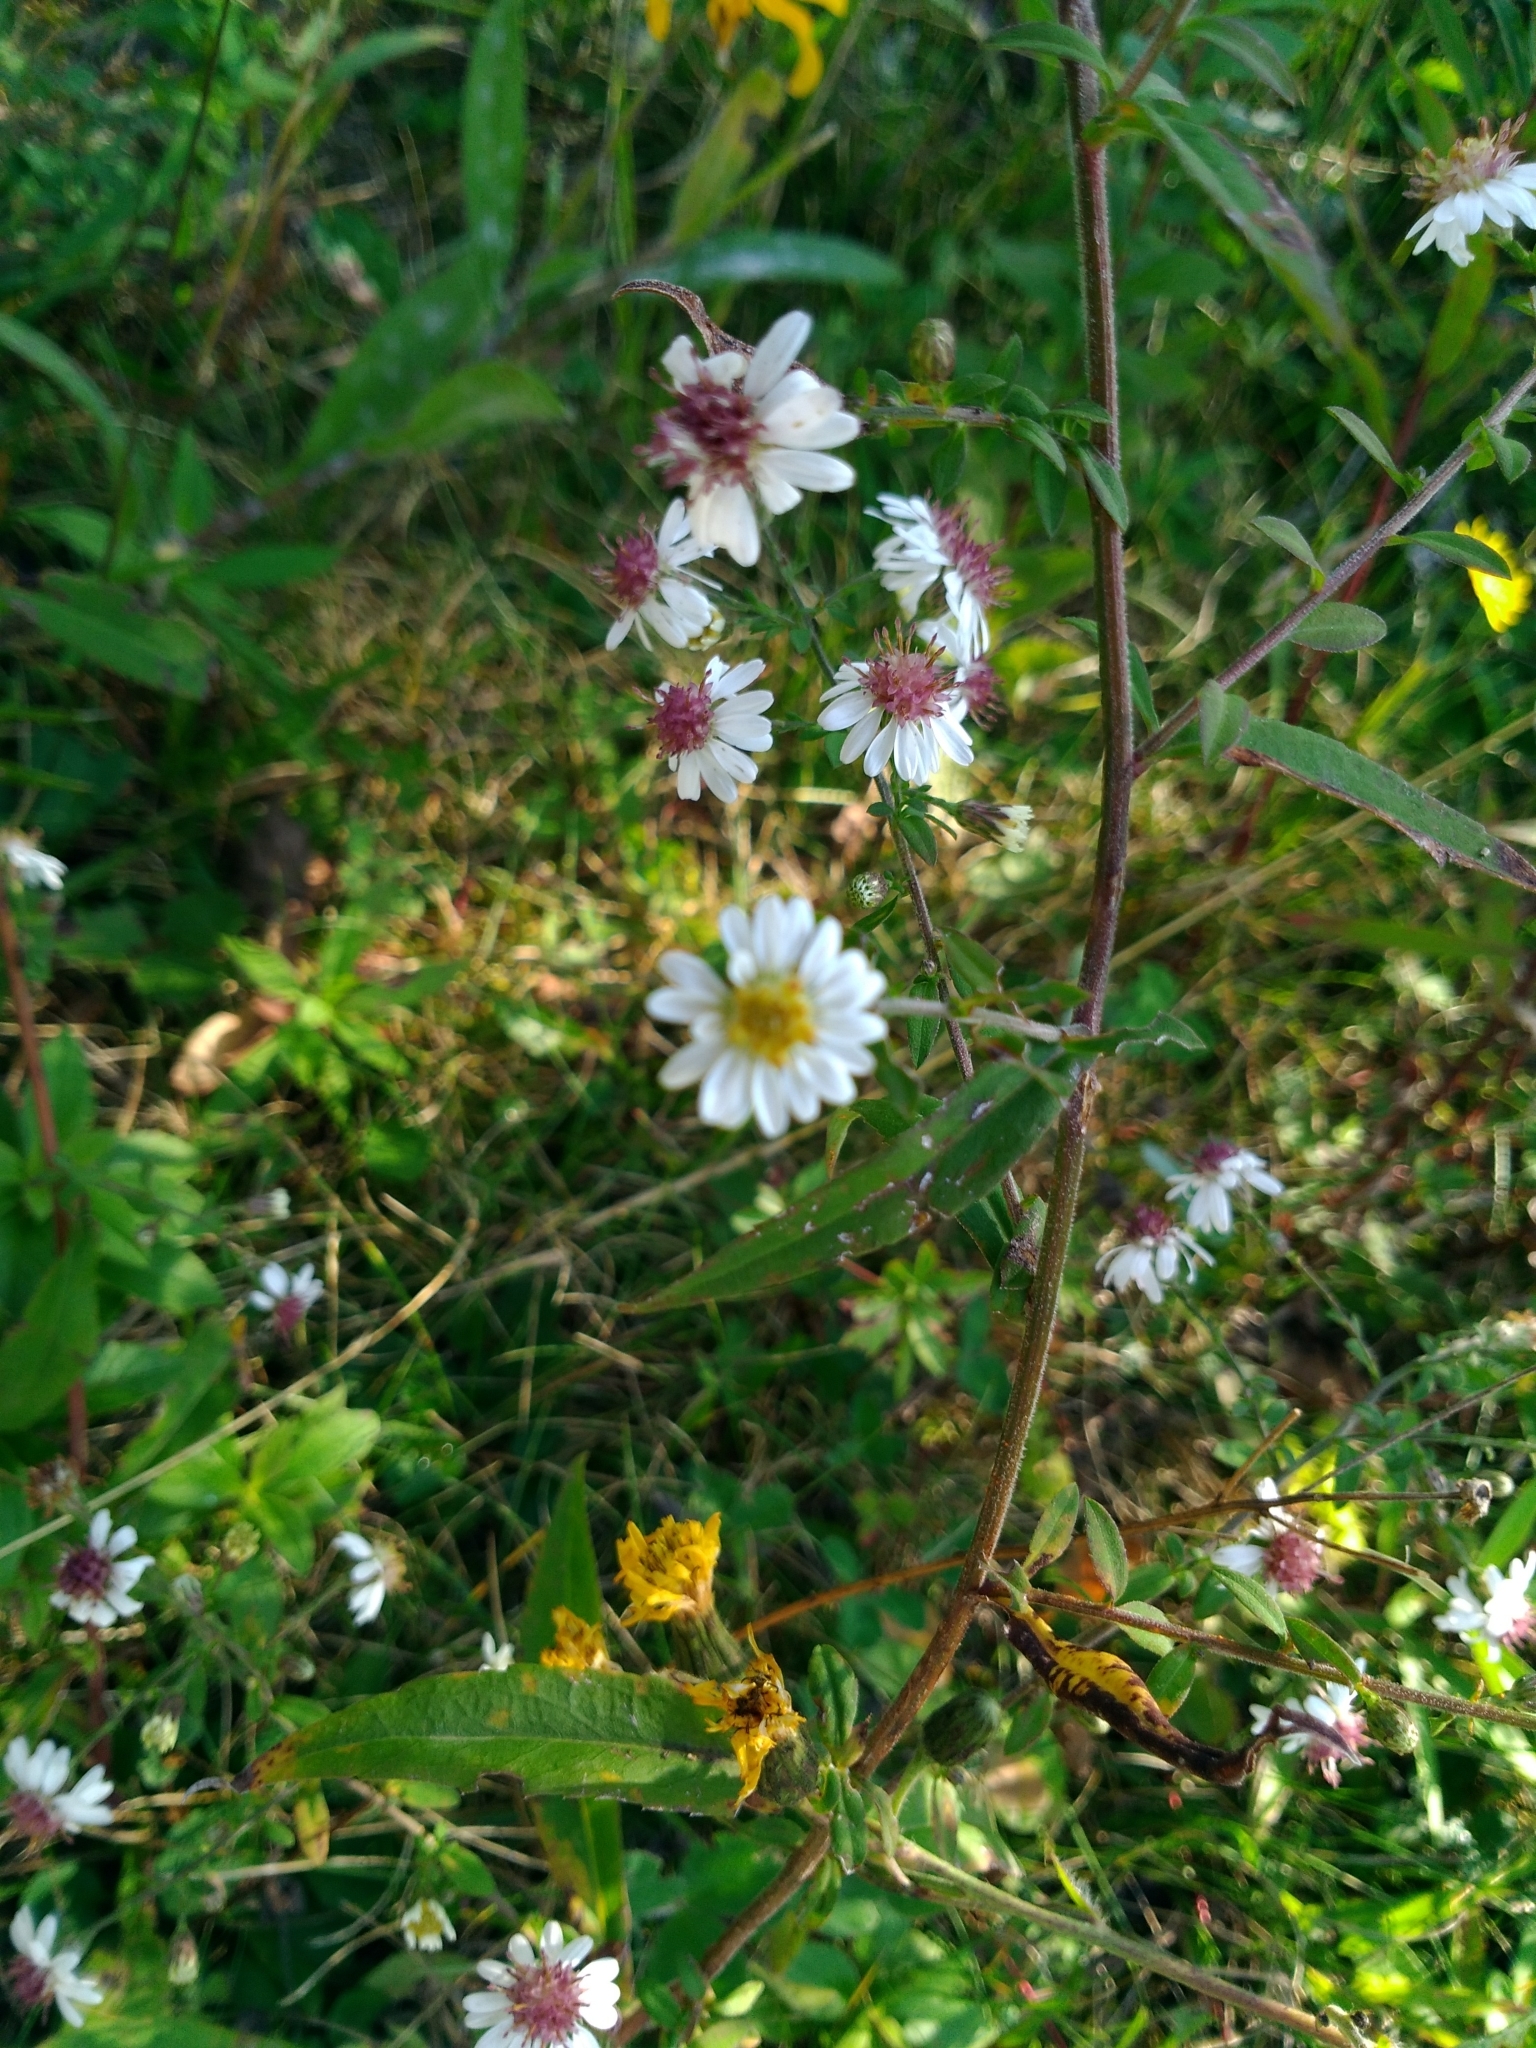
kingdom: Plantae
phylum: Tracheophyta
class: Magnoliopsida
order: Asterales
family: Asteraceae
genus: Symphyotrichum
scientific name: Symphyotrichum lateriflorum
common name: Calico aster
